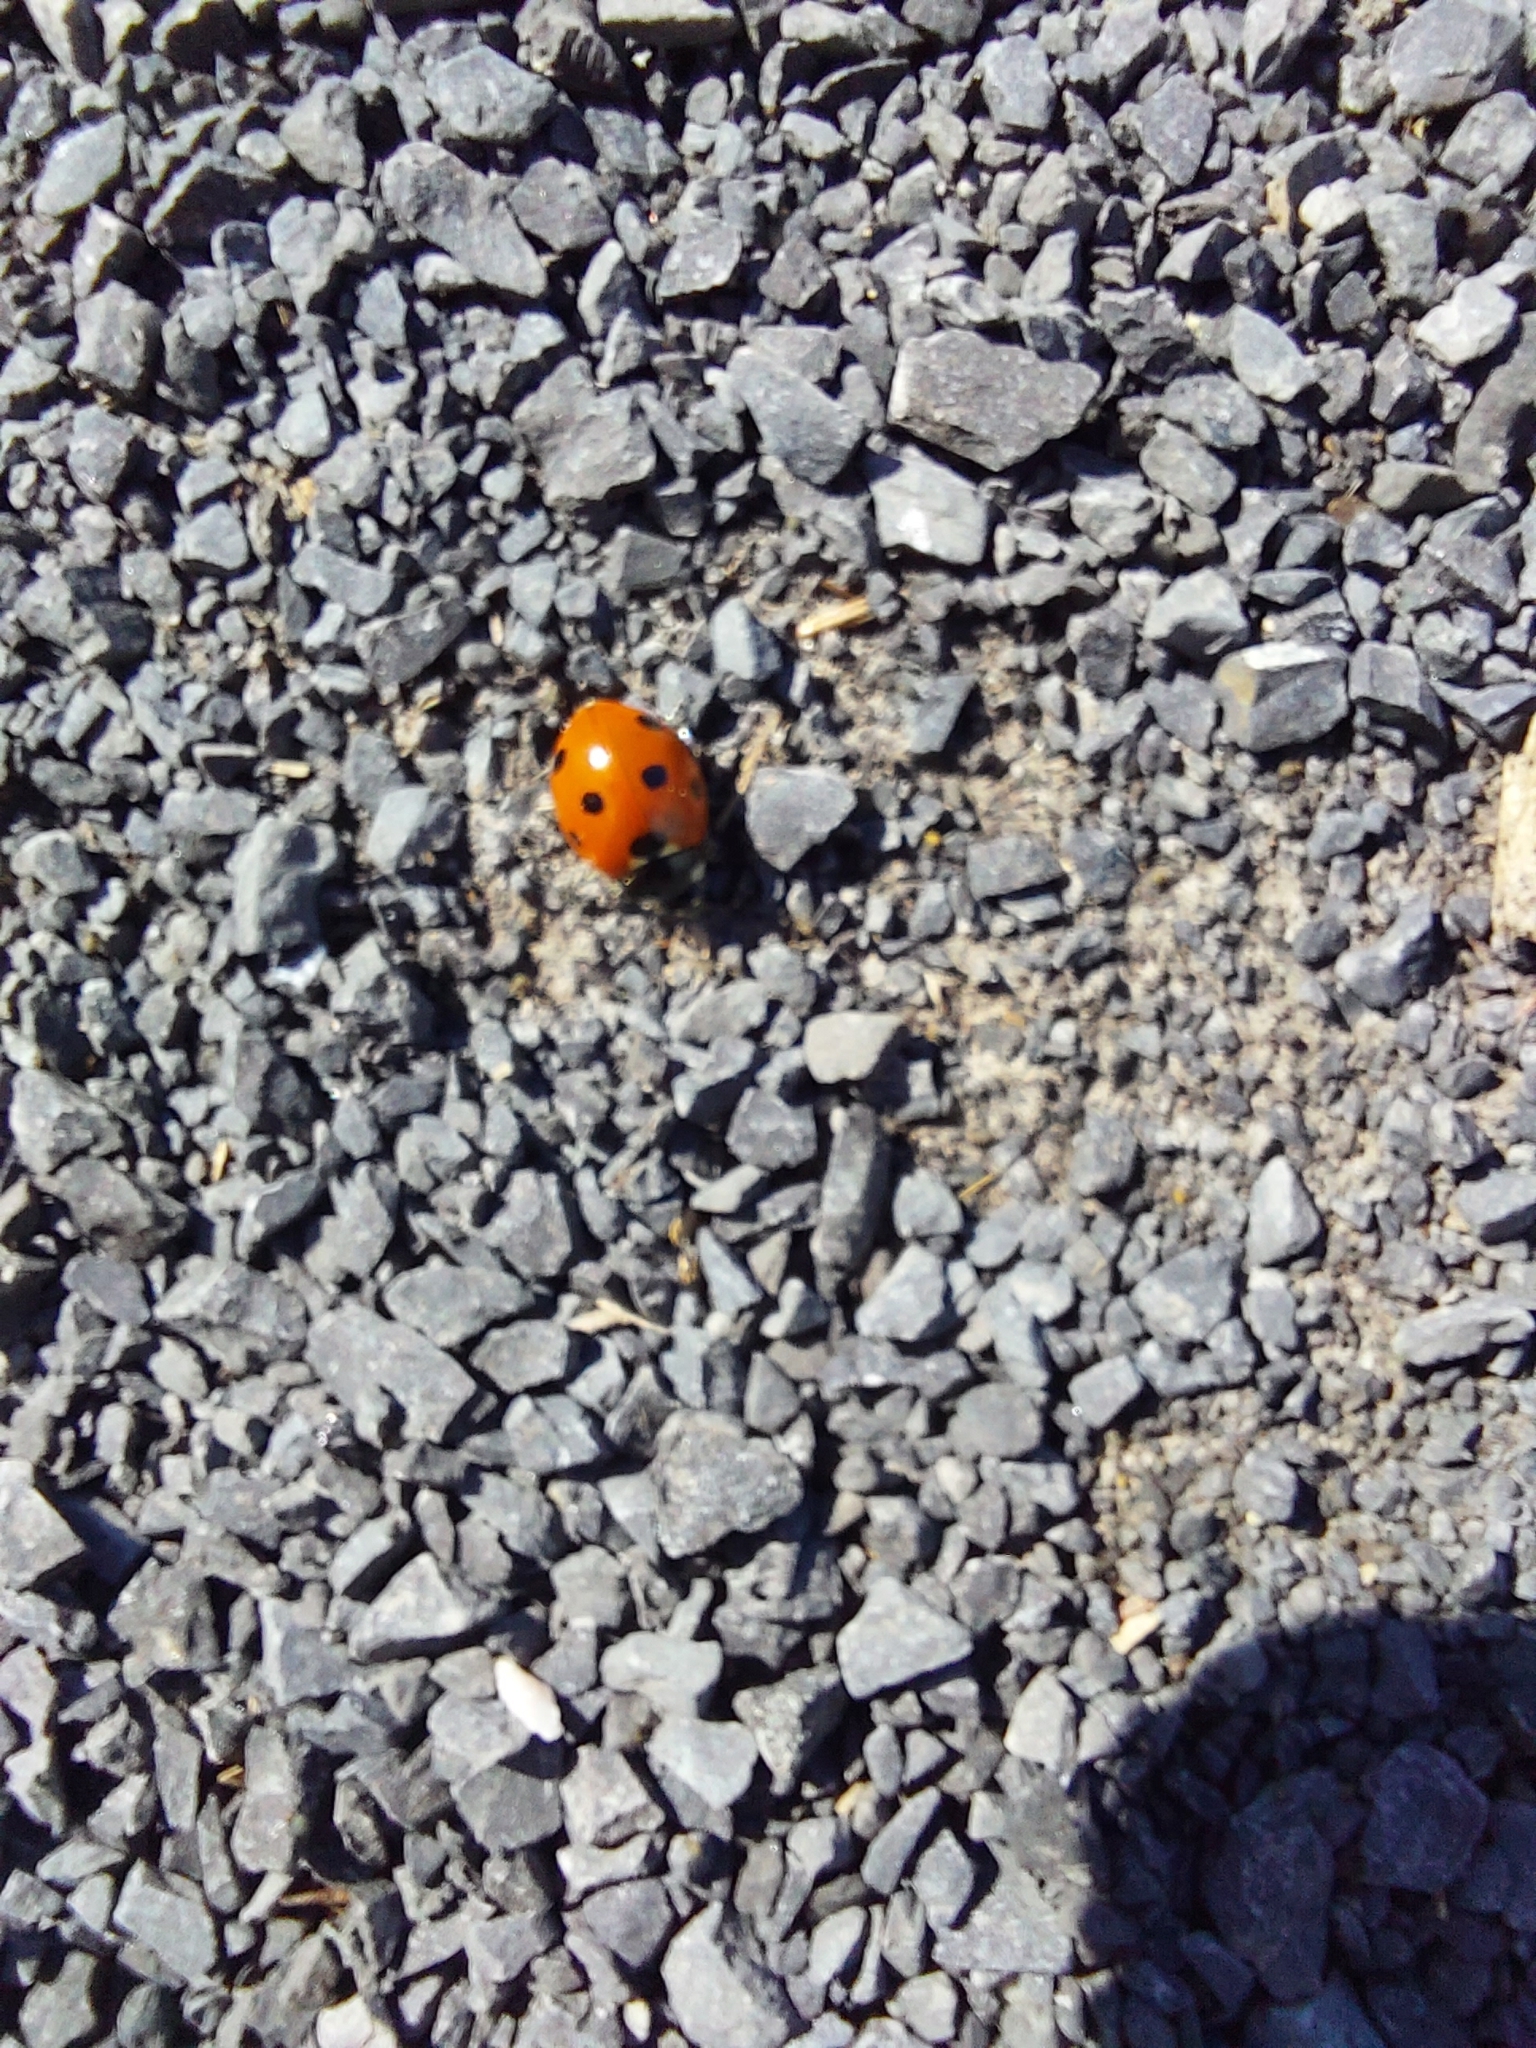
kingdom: Animalia
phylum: Arthropoda
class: Insecta
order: Coleoptera
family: Coccinellidae
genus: Coccinella
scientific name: Coccinella septempunctata
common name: Sevenspotted lady beetle
